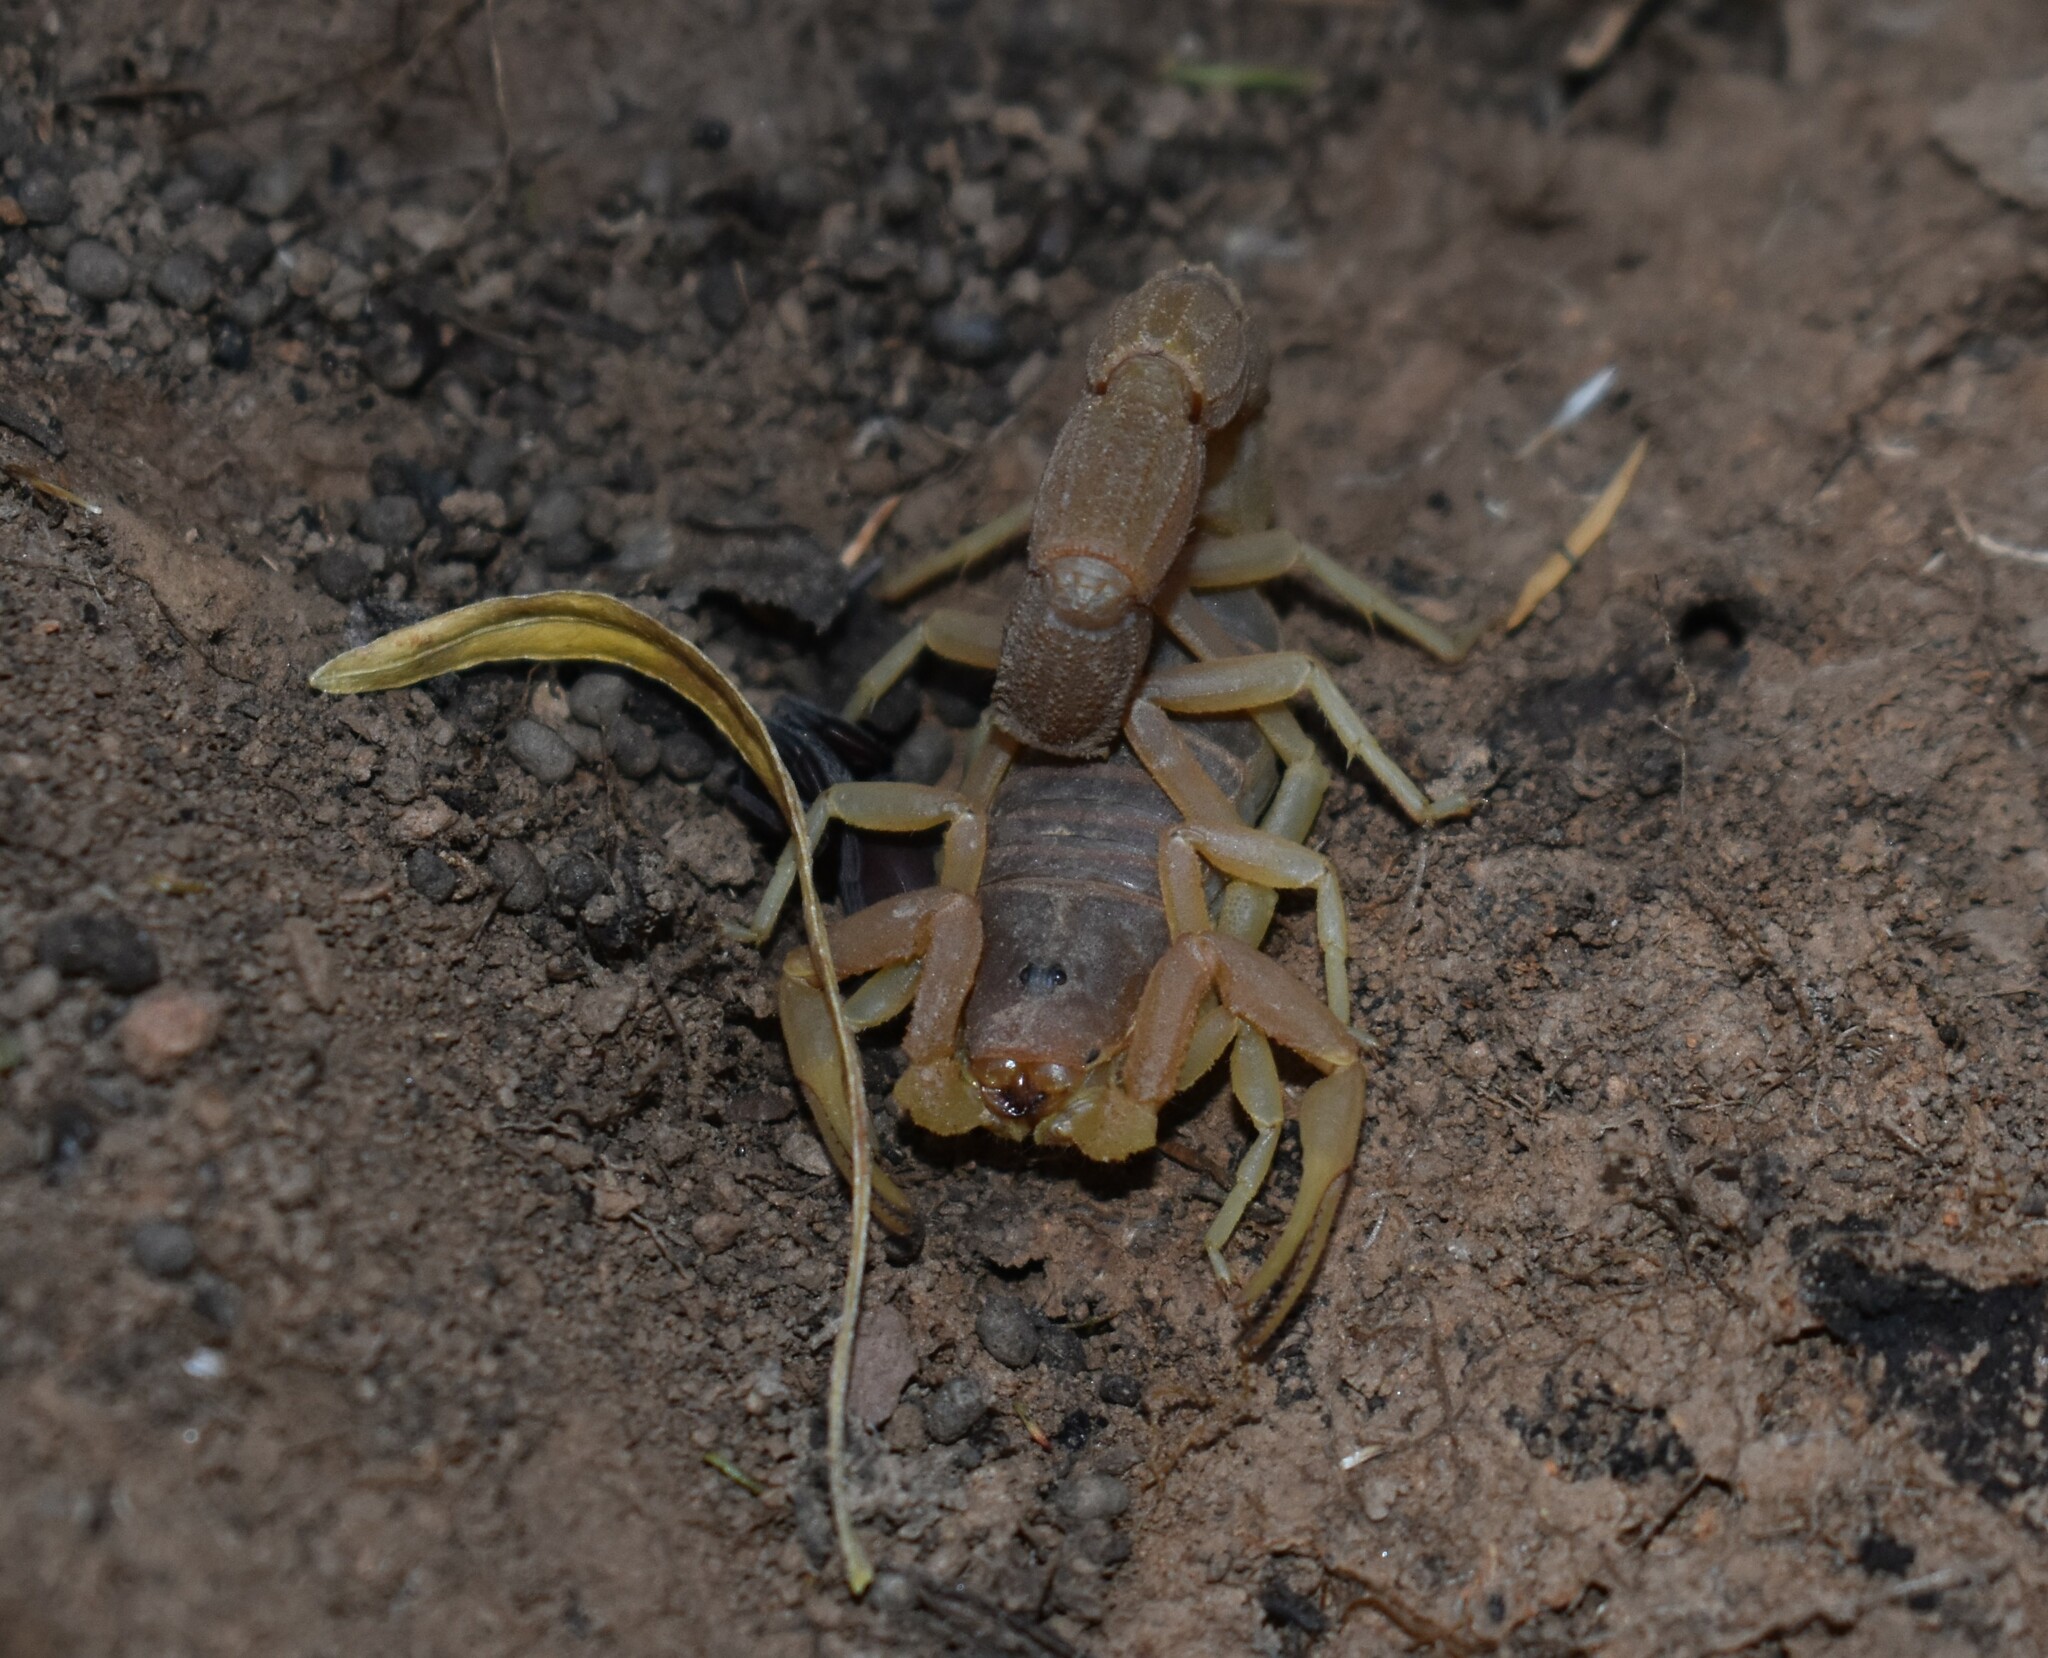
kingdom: Animalia
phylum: Arthropoda
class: Arachnida
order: Scorpiones
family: Buthidae
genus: Parabuthus
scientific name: Parabuthus planicauda
